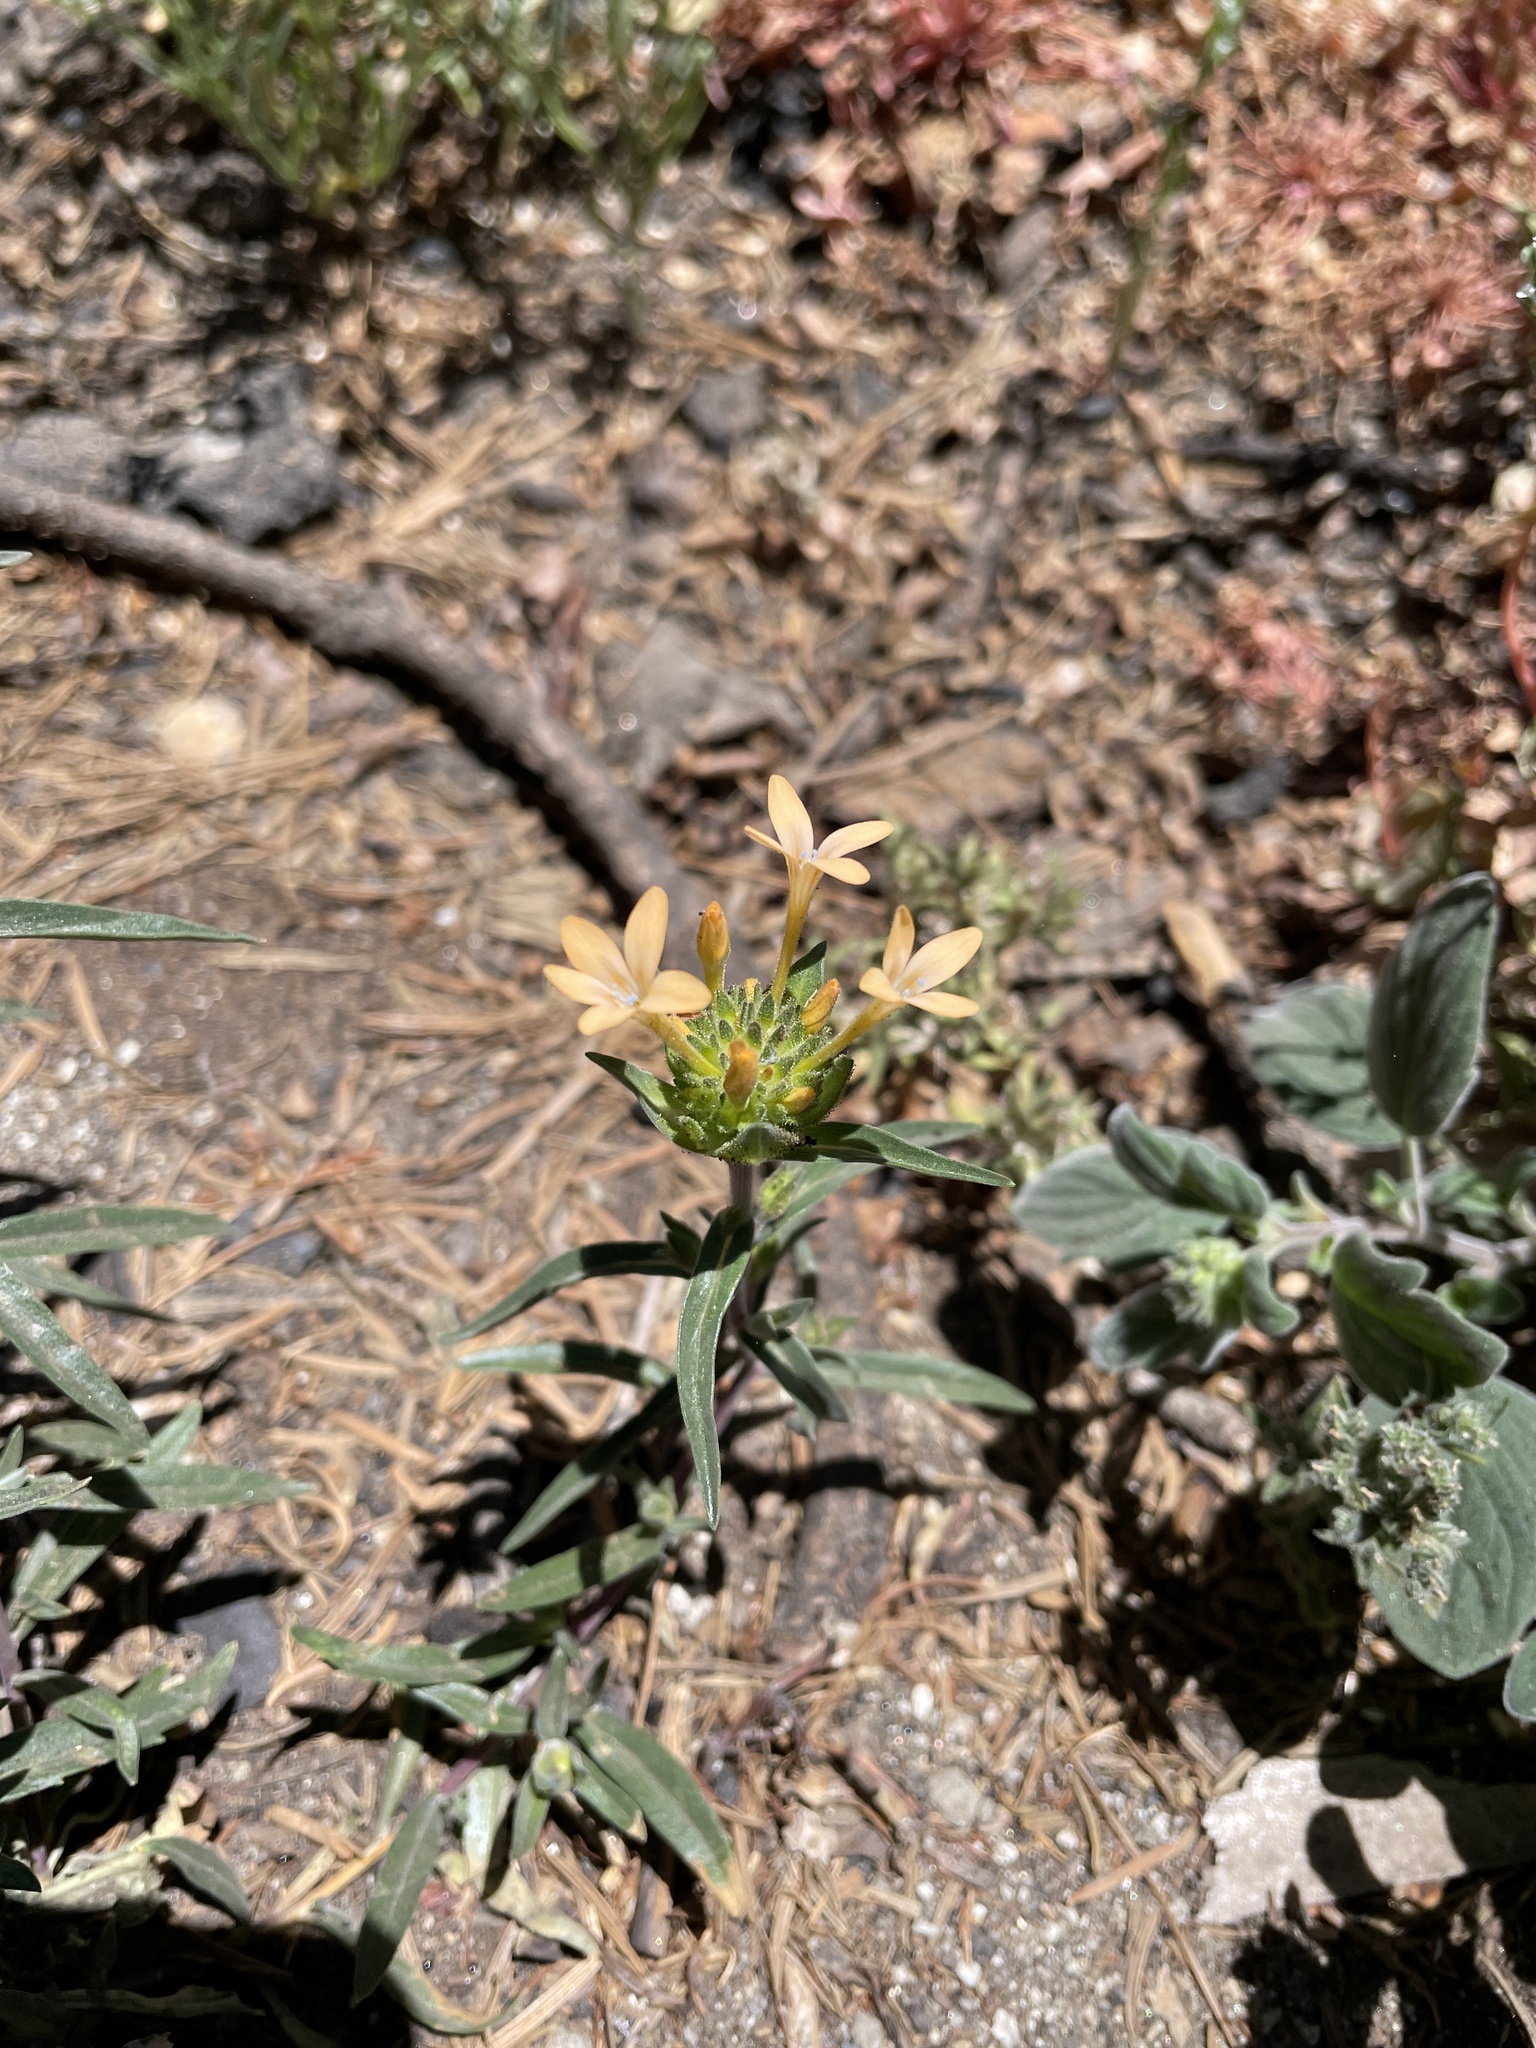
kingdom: Plantae
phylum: Tracheophyta
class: Magnoliopsida
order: Ericales
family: Polemoniaceae
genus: Collomia
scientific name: Collomia grandiflora
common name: California strawflower
